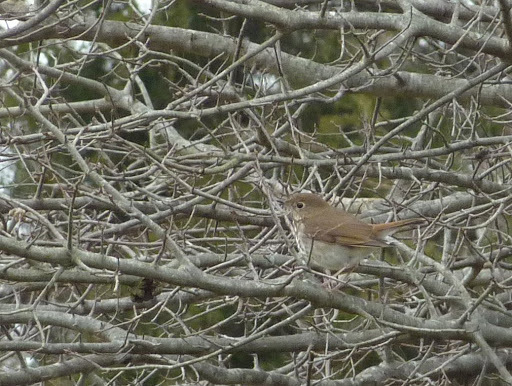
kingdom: Animalia
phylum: Chordata
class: Aves
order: Passeriformes
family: Turdidae
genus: Catharus
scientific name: Catharus guttatus
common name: Hermit thrush
